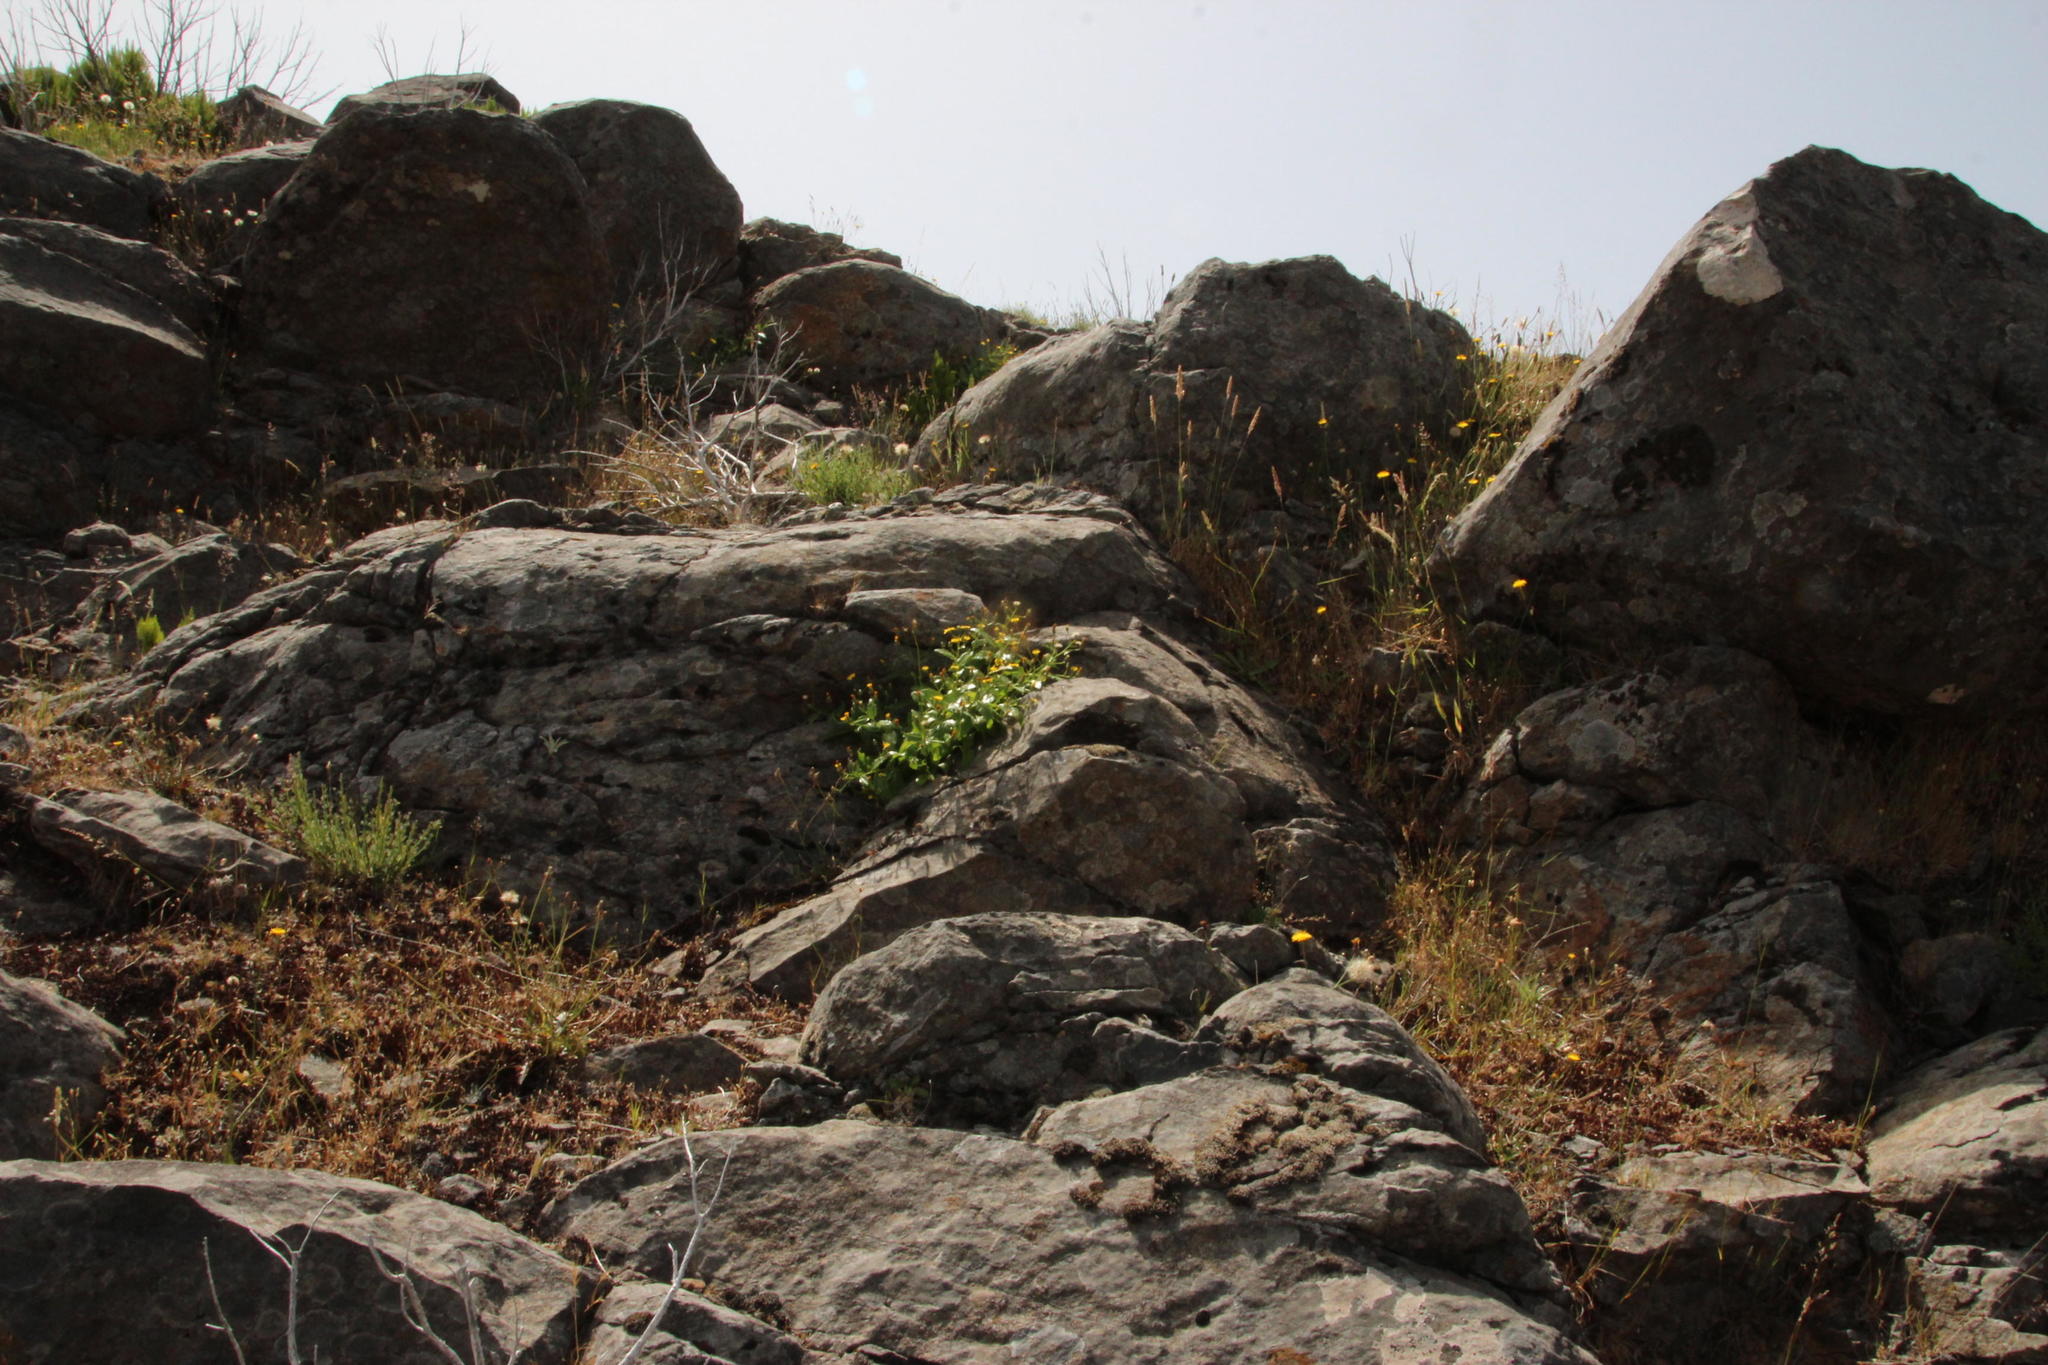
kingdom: Plantae
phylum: Tracheophyta
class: Magnoliopsida
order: Asterales
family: Asteraceae
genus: Tolpis
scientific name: Tolpis macrorhiza
